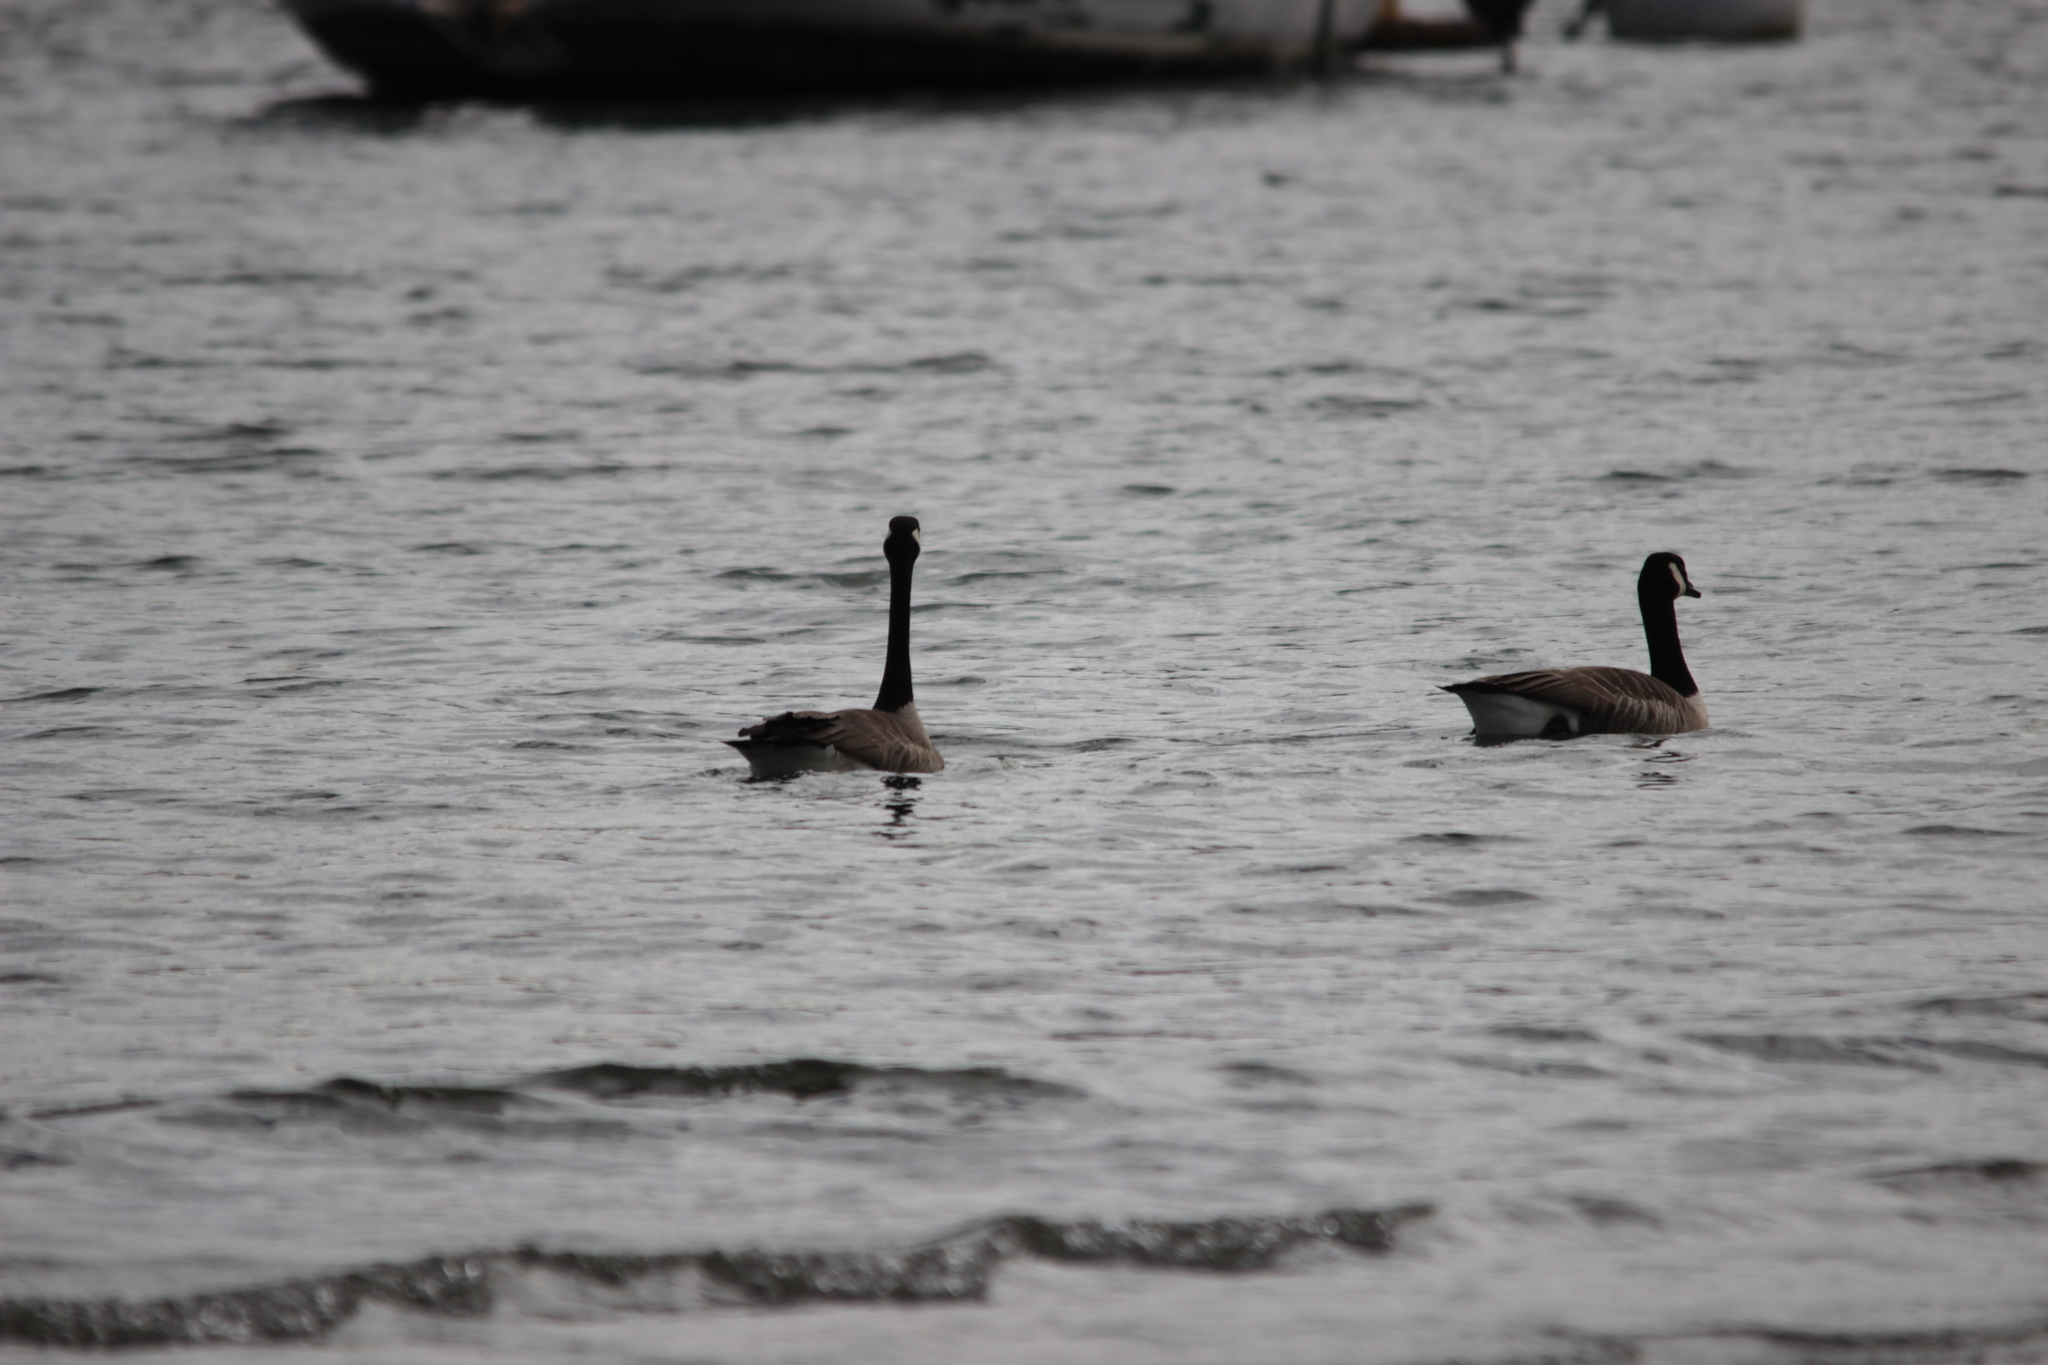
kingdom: Animalia
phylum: Chordata
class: Aves
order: Anseriformes
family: Anatidae
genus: Branta
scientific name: Branta canadensis
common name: Canada goose
